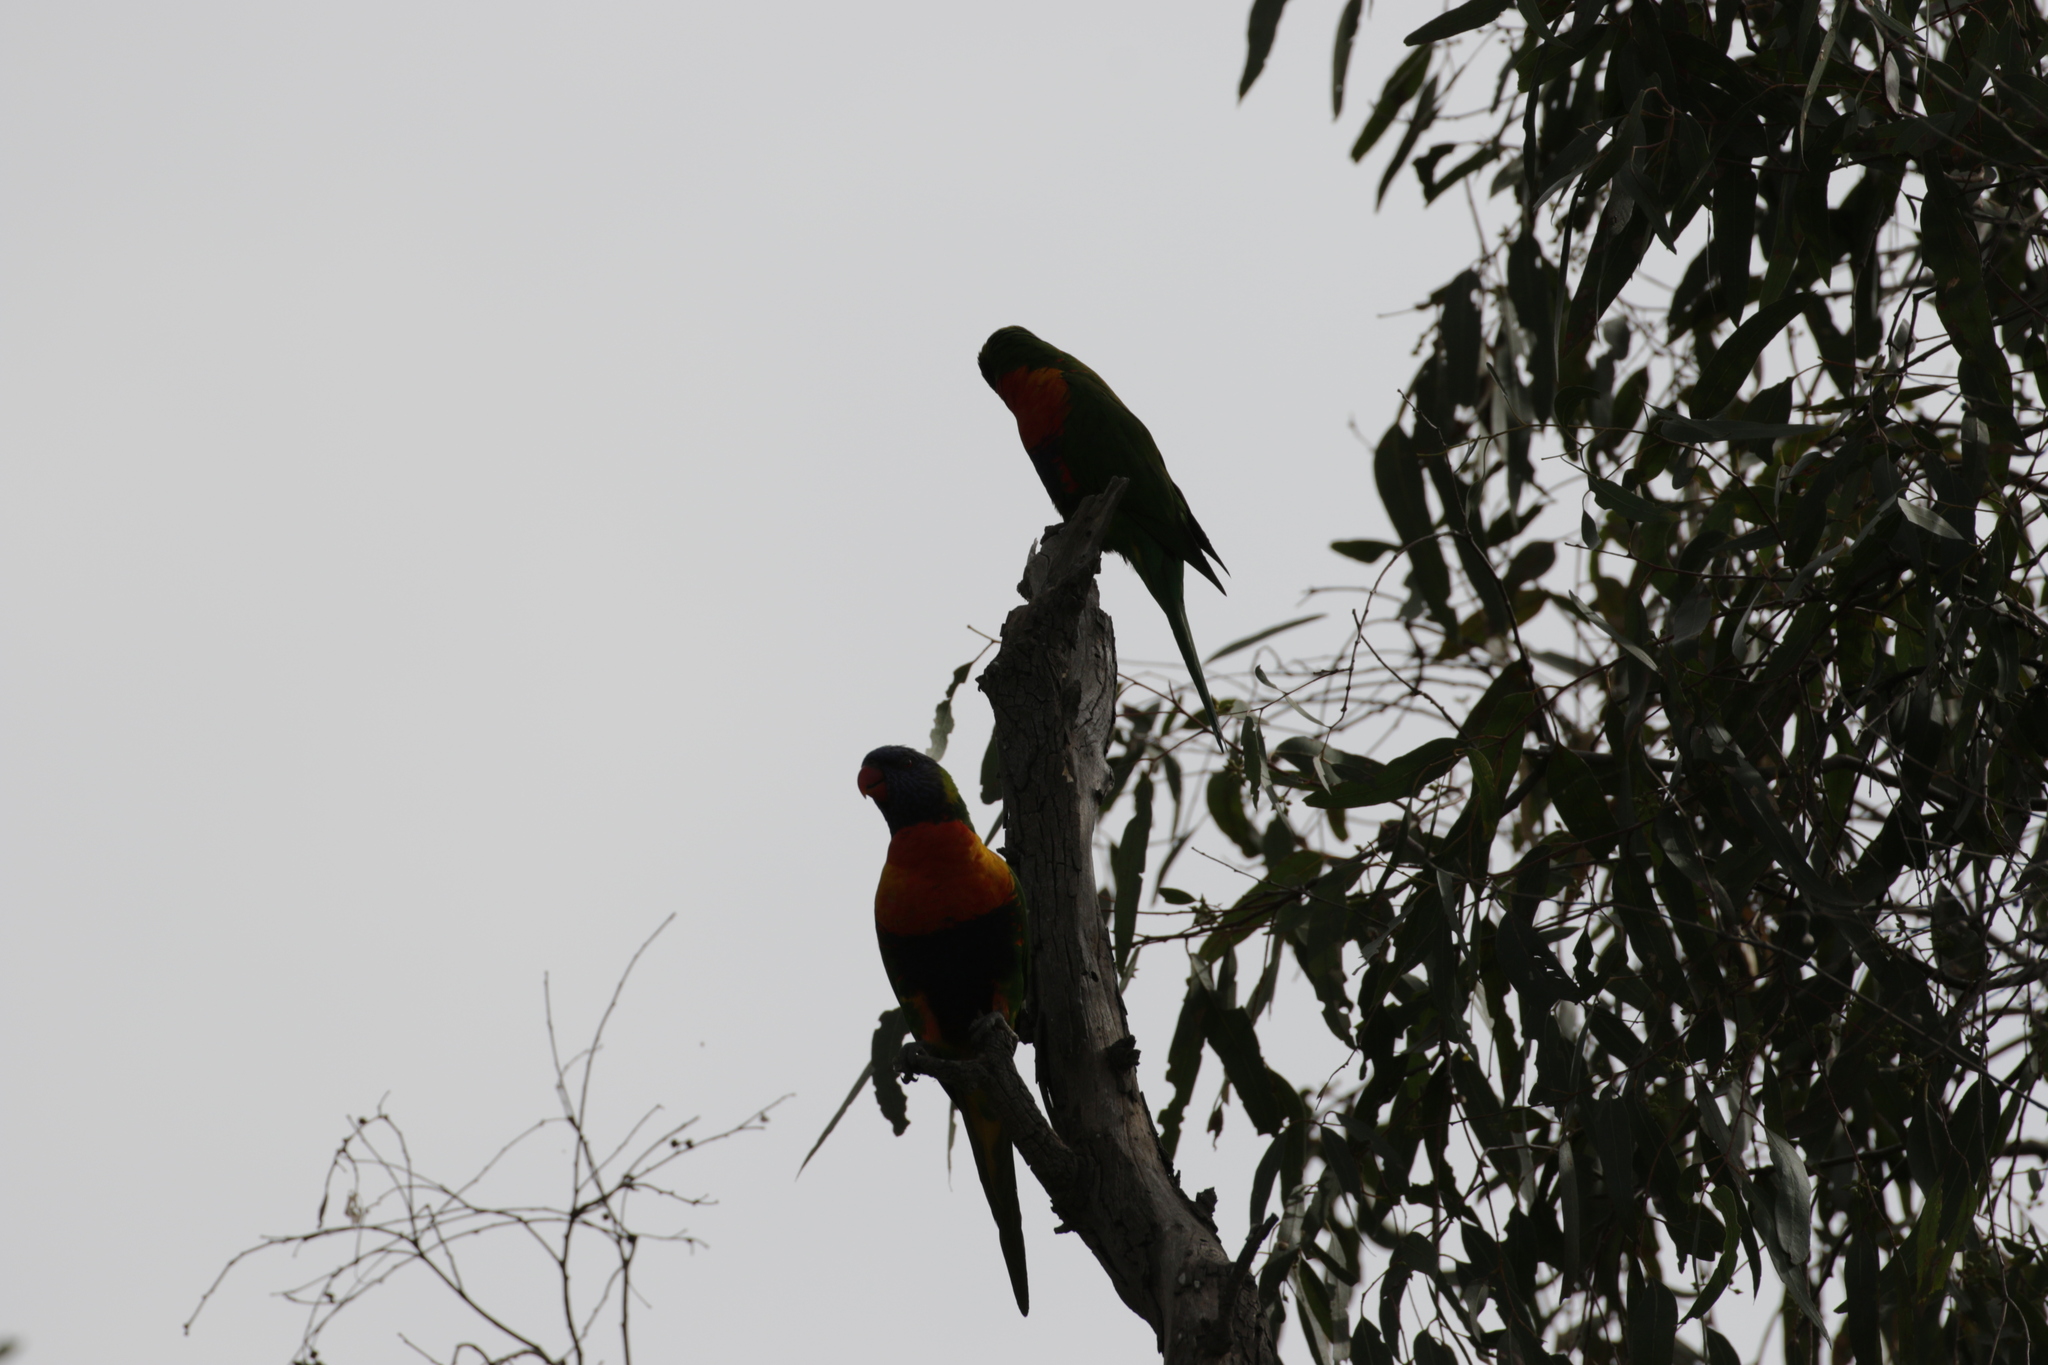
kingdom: Animalia
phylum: Chordata
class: Aves
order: Psittaciformes
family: Psittacidae
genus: Trichoglossus
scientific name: Trichoglossus haematodus
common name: Coconut lorikeet
